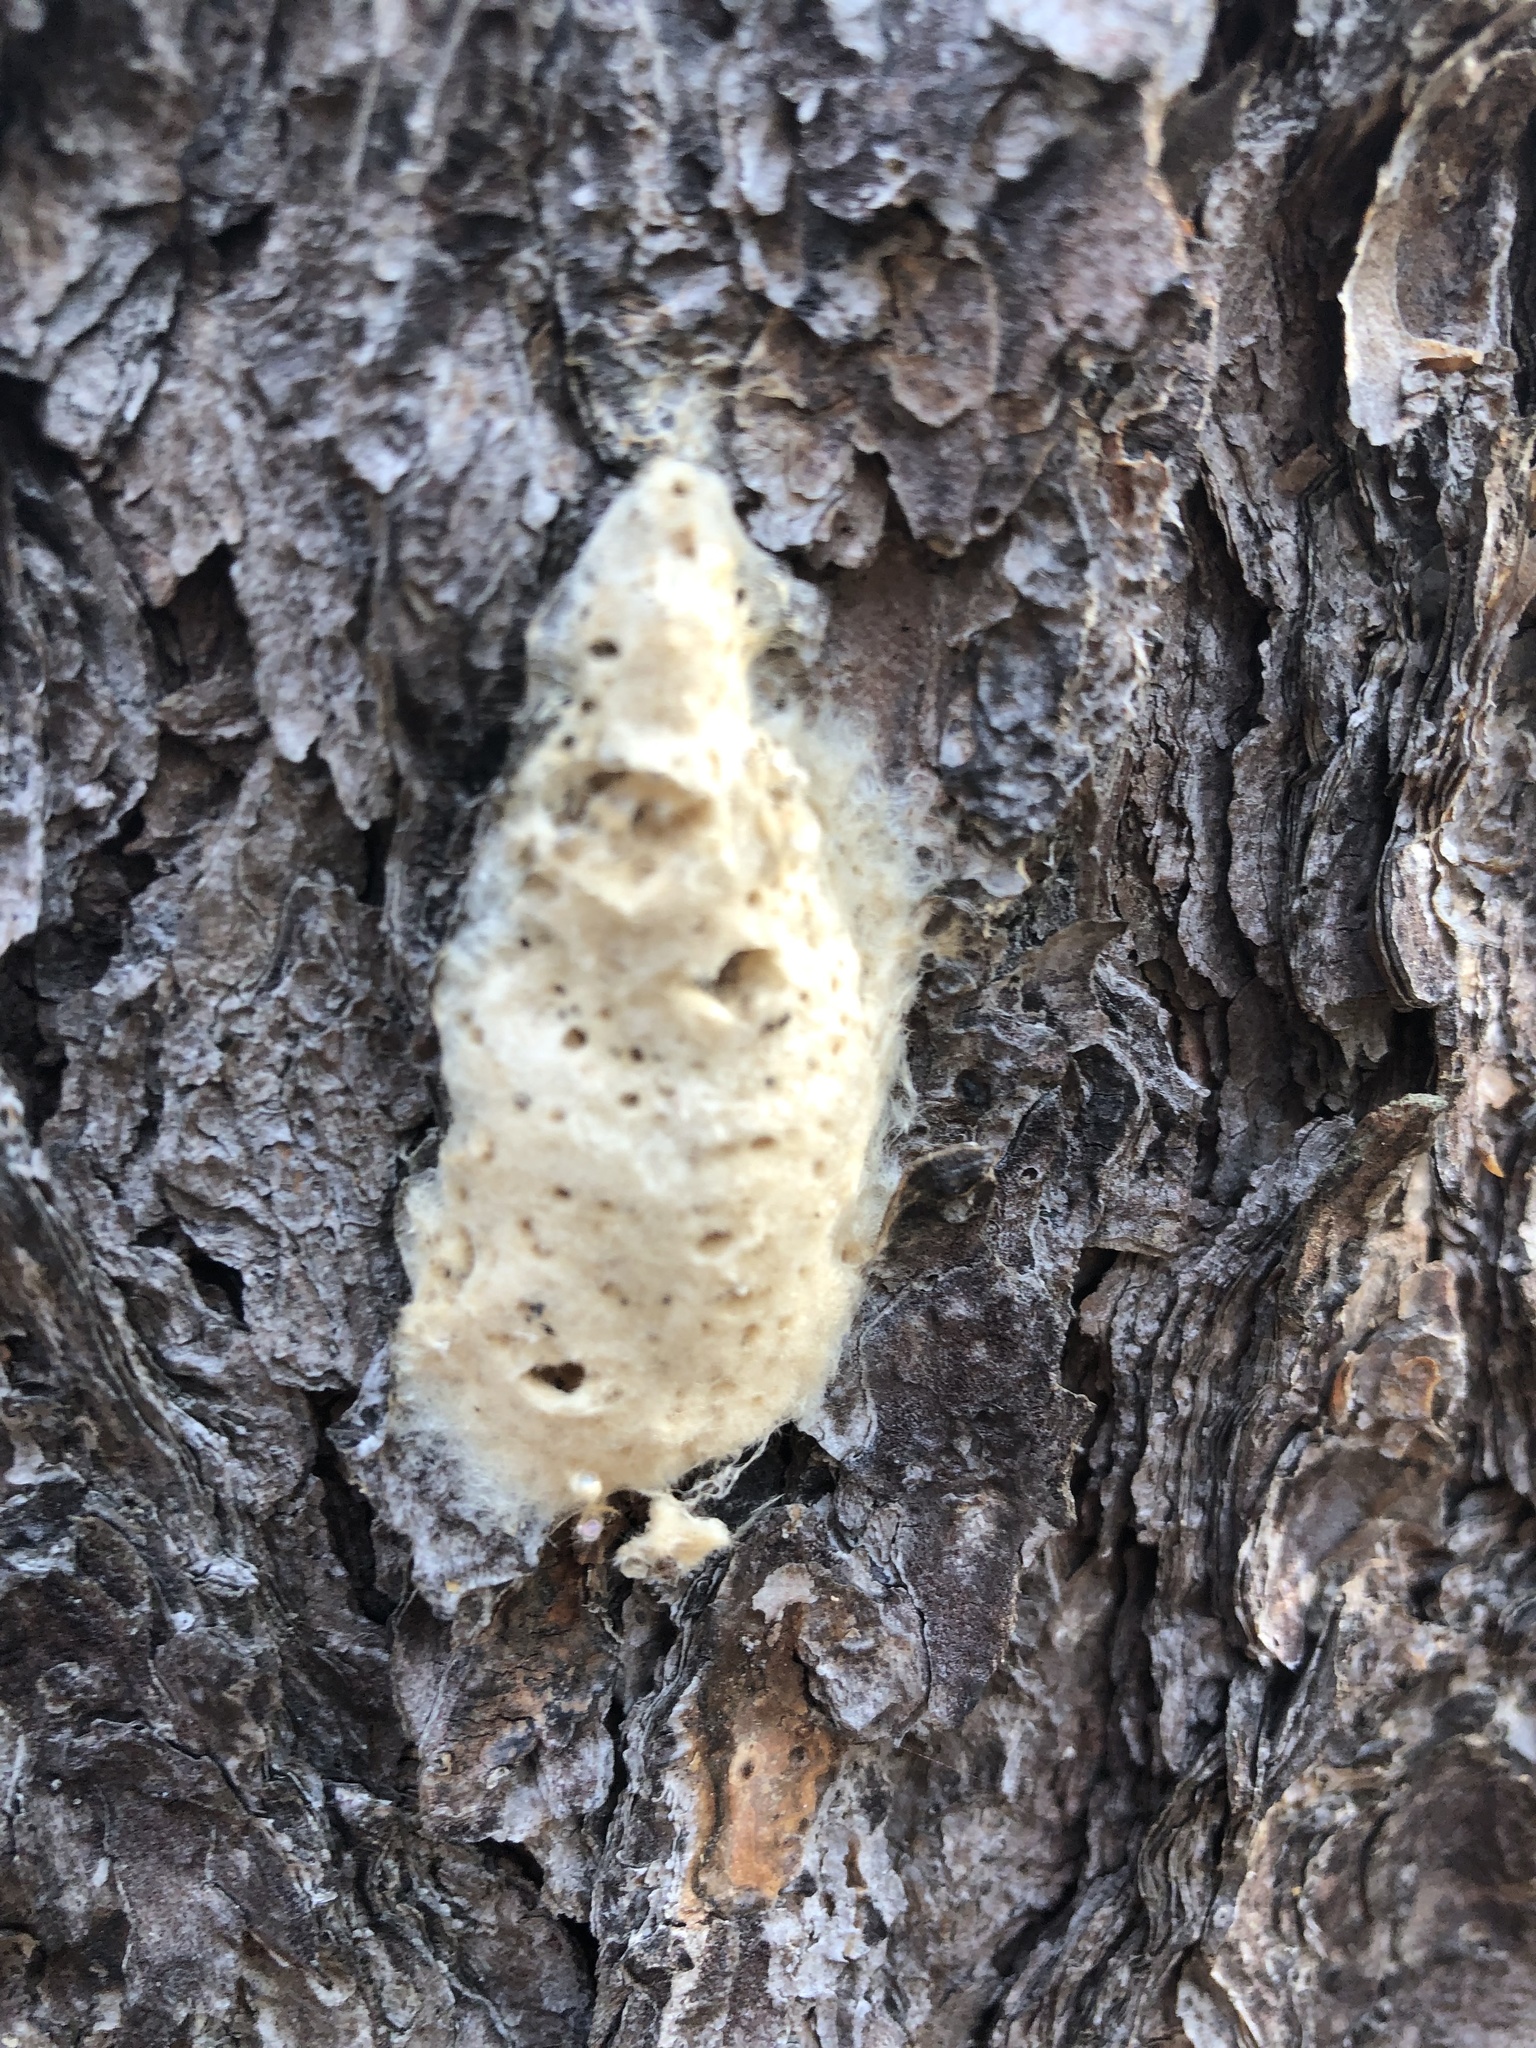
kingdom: Animalia
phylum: Arthropoda
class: Insecta
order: Lepidoptera
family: Erebidae
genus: Lymantria
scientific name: Lymantria dispar
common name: Gypsy moth
